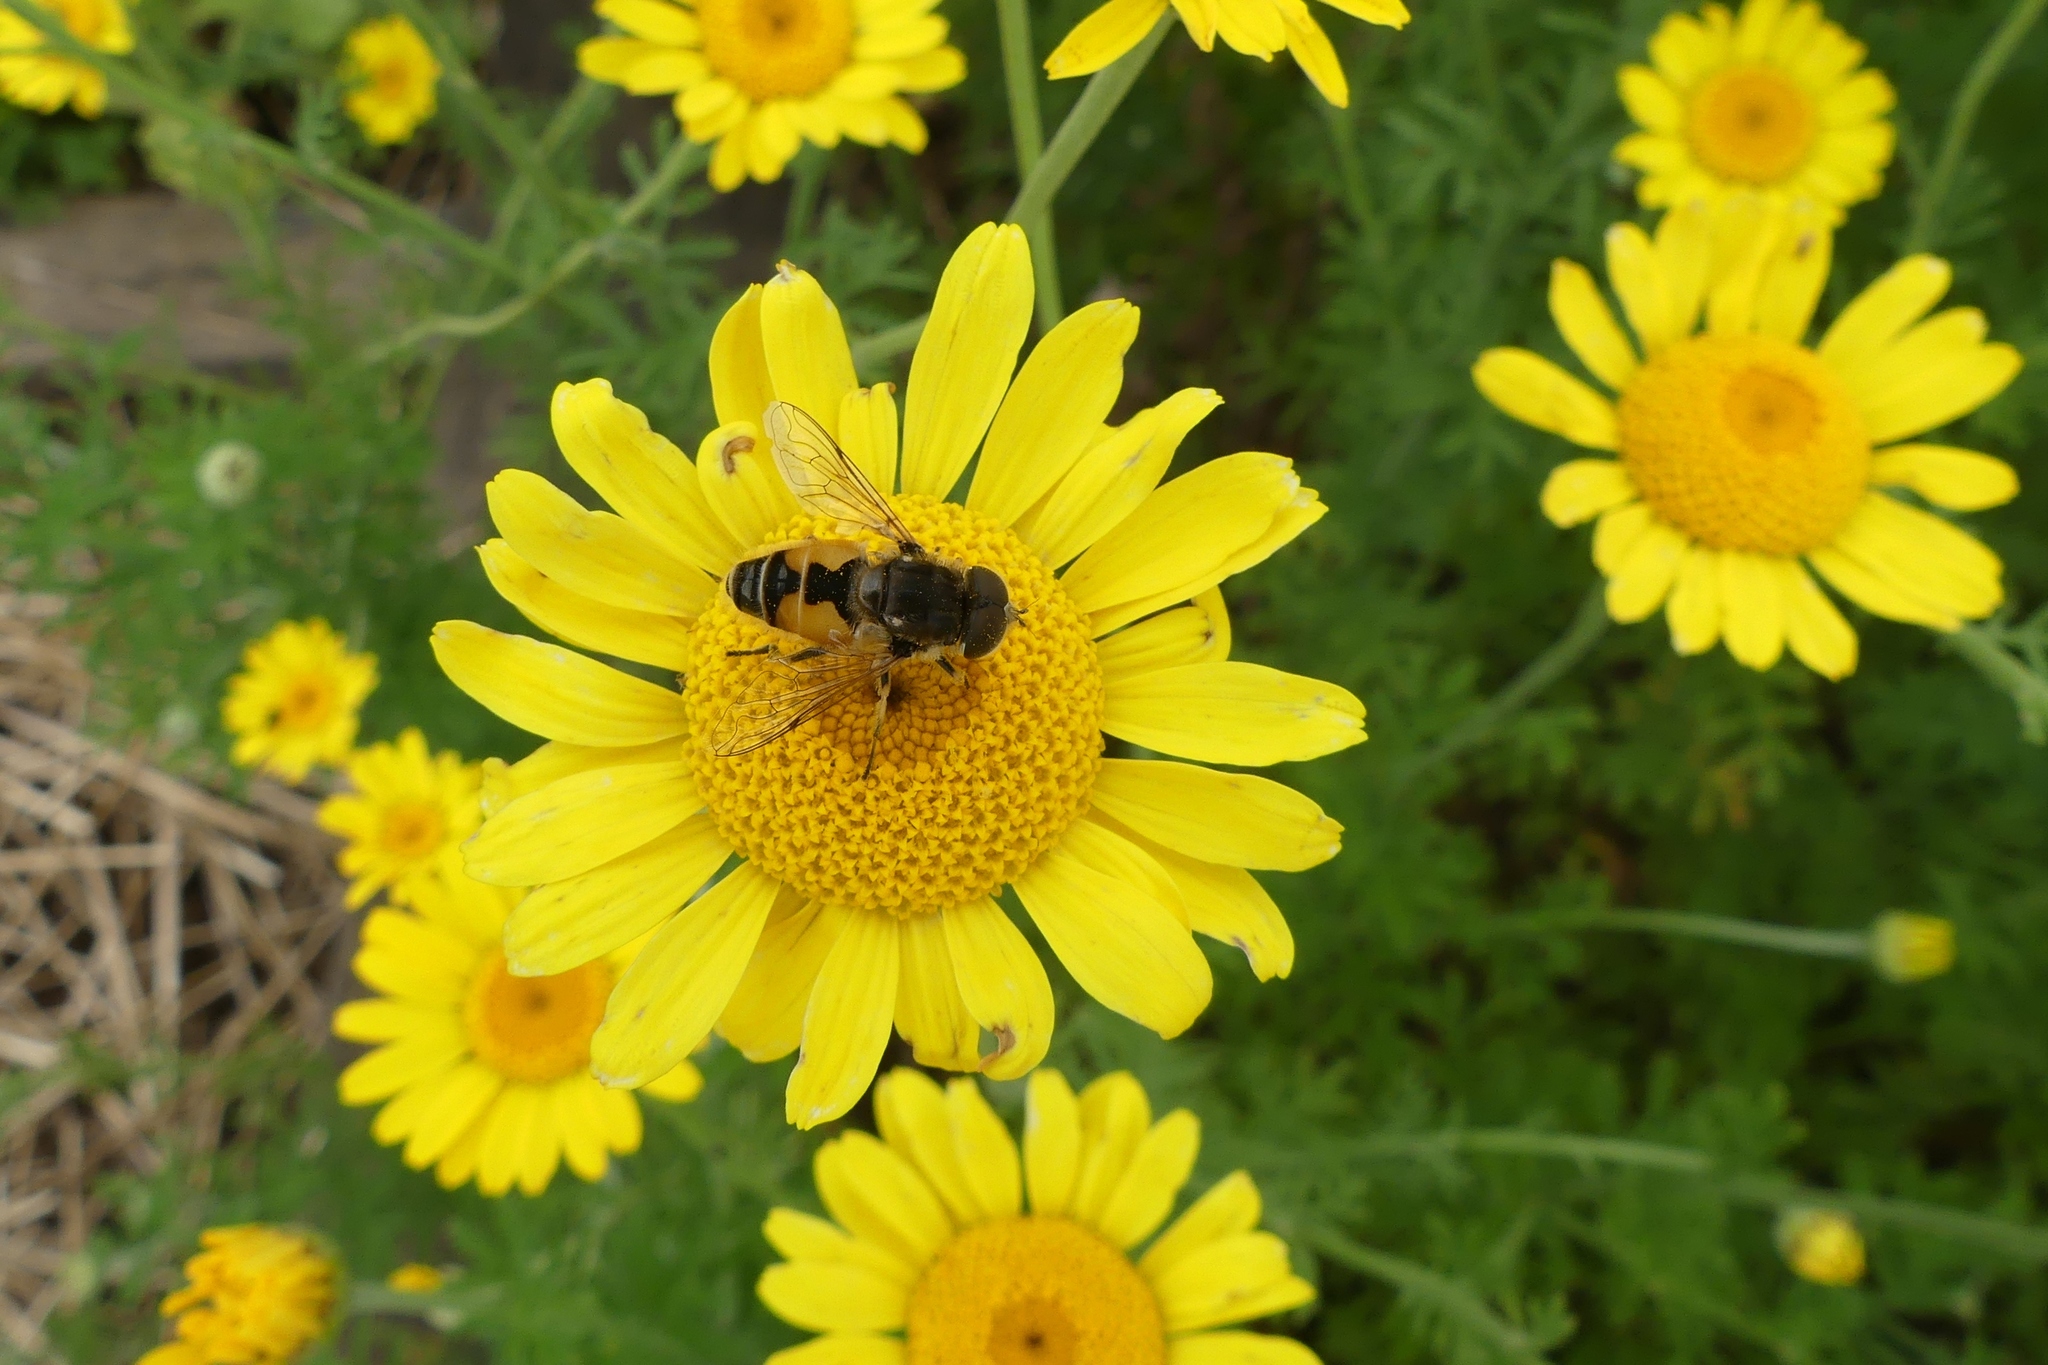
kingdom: Animalia
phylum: Arthropoda
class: Insecta
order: Diptera
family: Syrphidae
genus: Eristalis
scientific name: Eristalis arbustorum
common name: Hover fly
